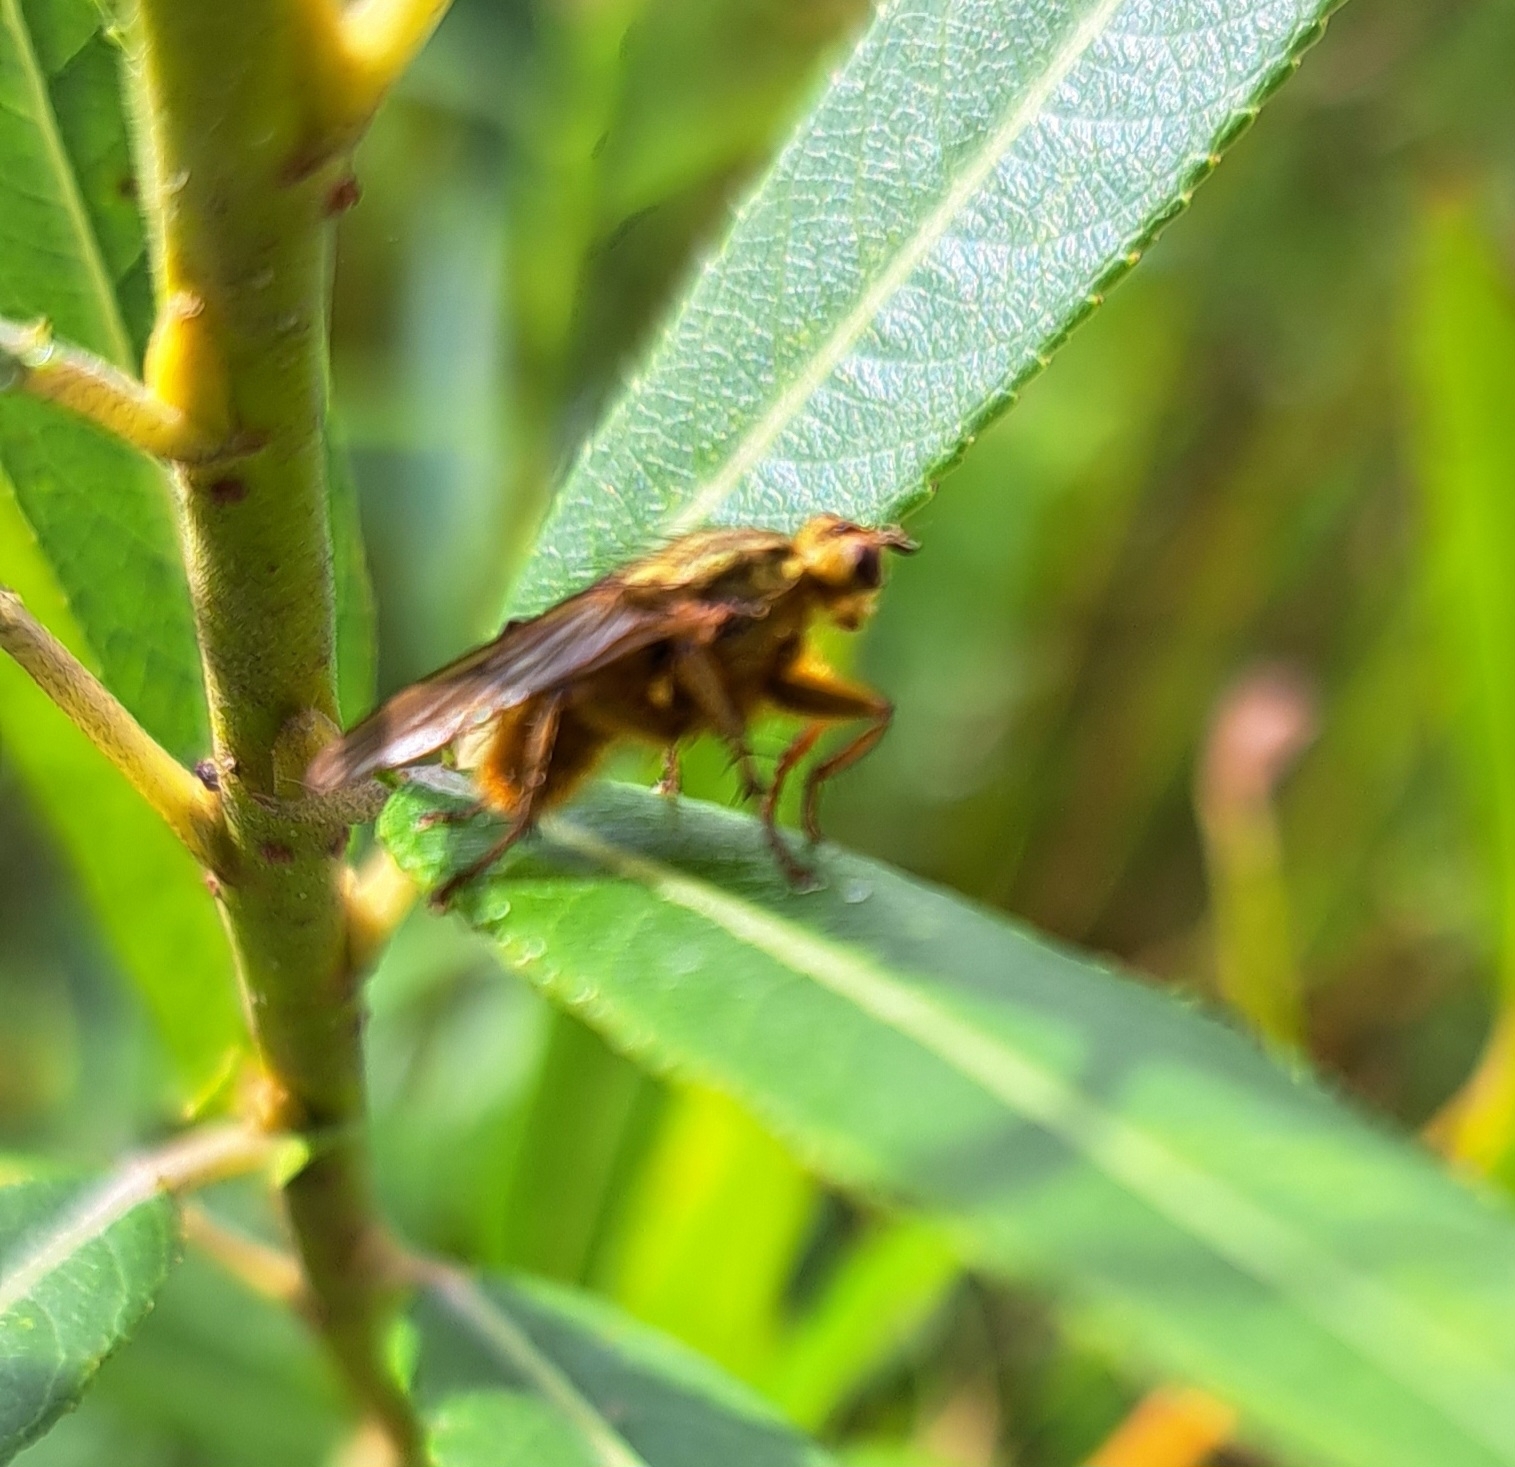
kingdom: Animalia
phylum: Arthropoda
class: Insecta
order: Diptera
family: Scathophagidae
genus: Scathophaga
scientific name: Scathophaga stercoraria
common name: Yellow dung fly
